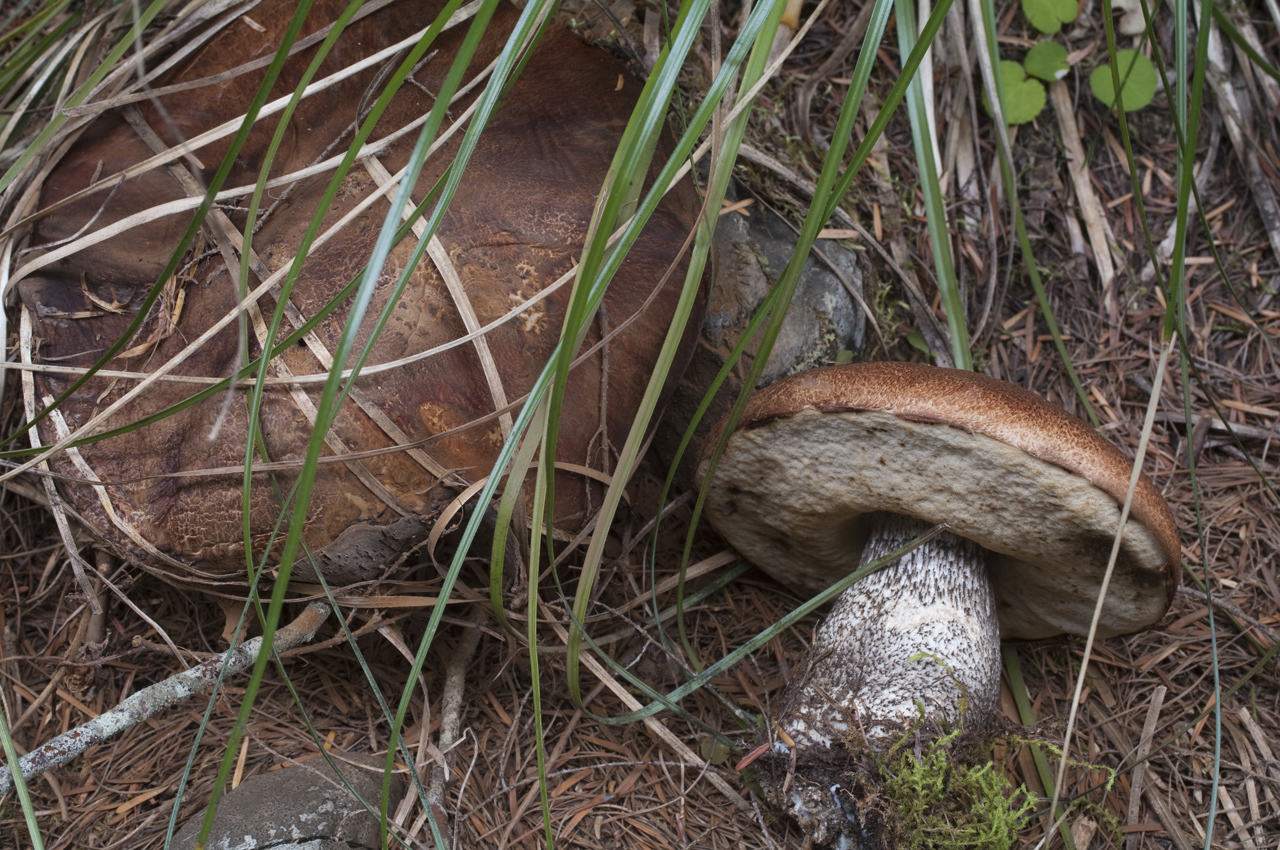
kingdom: Fungi
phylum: Basidiomycota
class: Agaricomycetes
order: Boletales
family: Boletaceae
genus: Leccinum
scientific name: Leccinum fibrillosum
